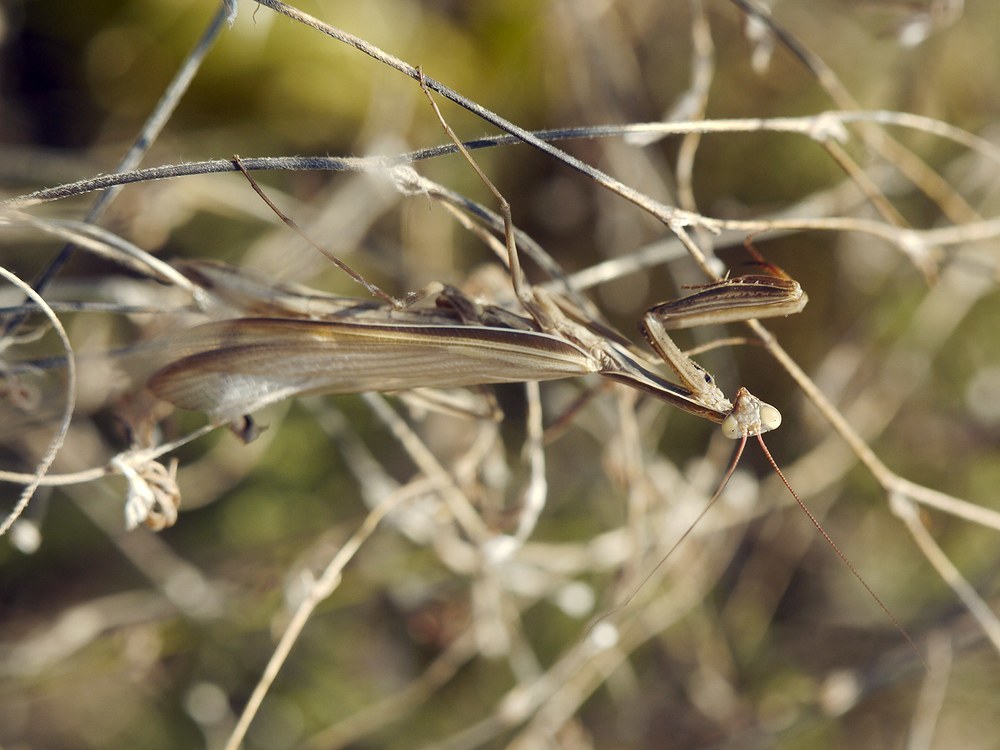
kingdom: Animalia
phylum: Arthropoda
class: Insecta
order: Mantodea
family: Mantidae
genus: Mantis
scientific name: Mantis religiosa
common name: Praying mantis
